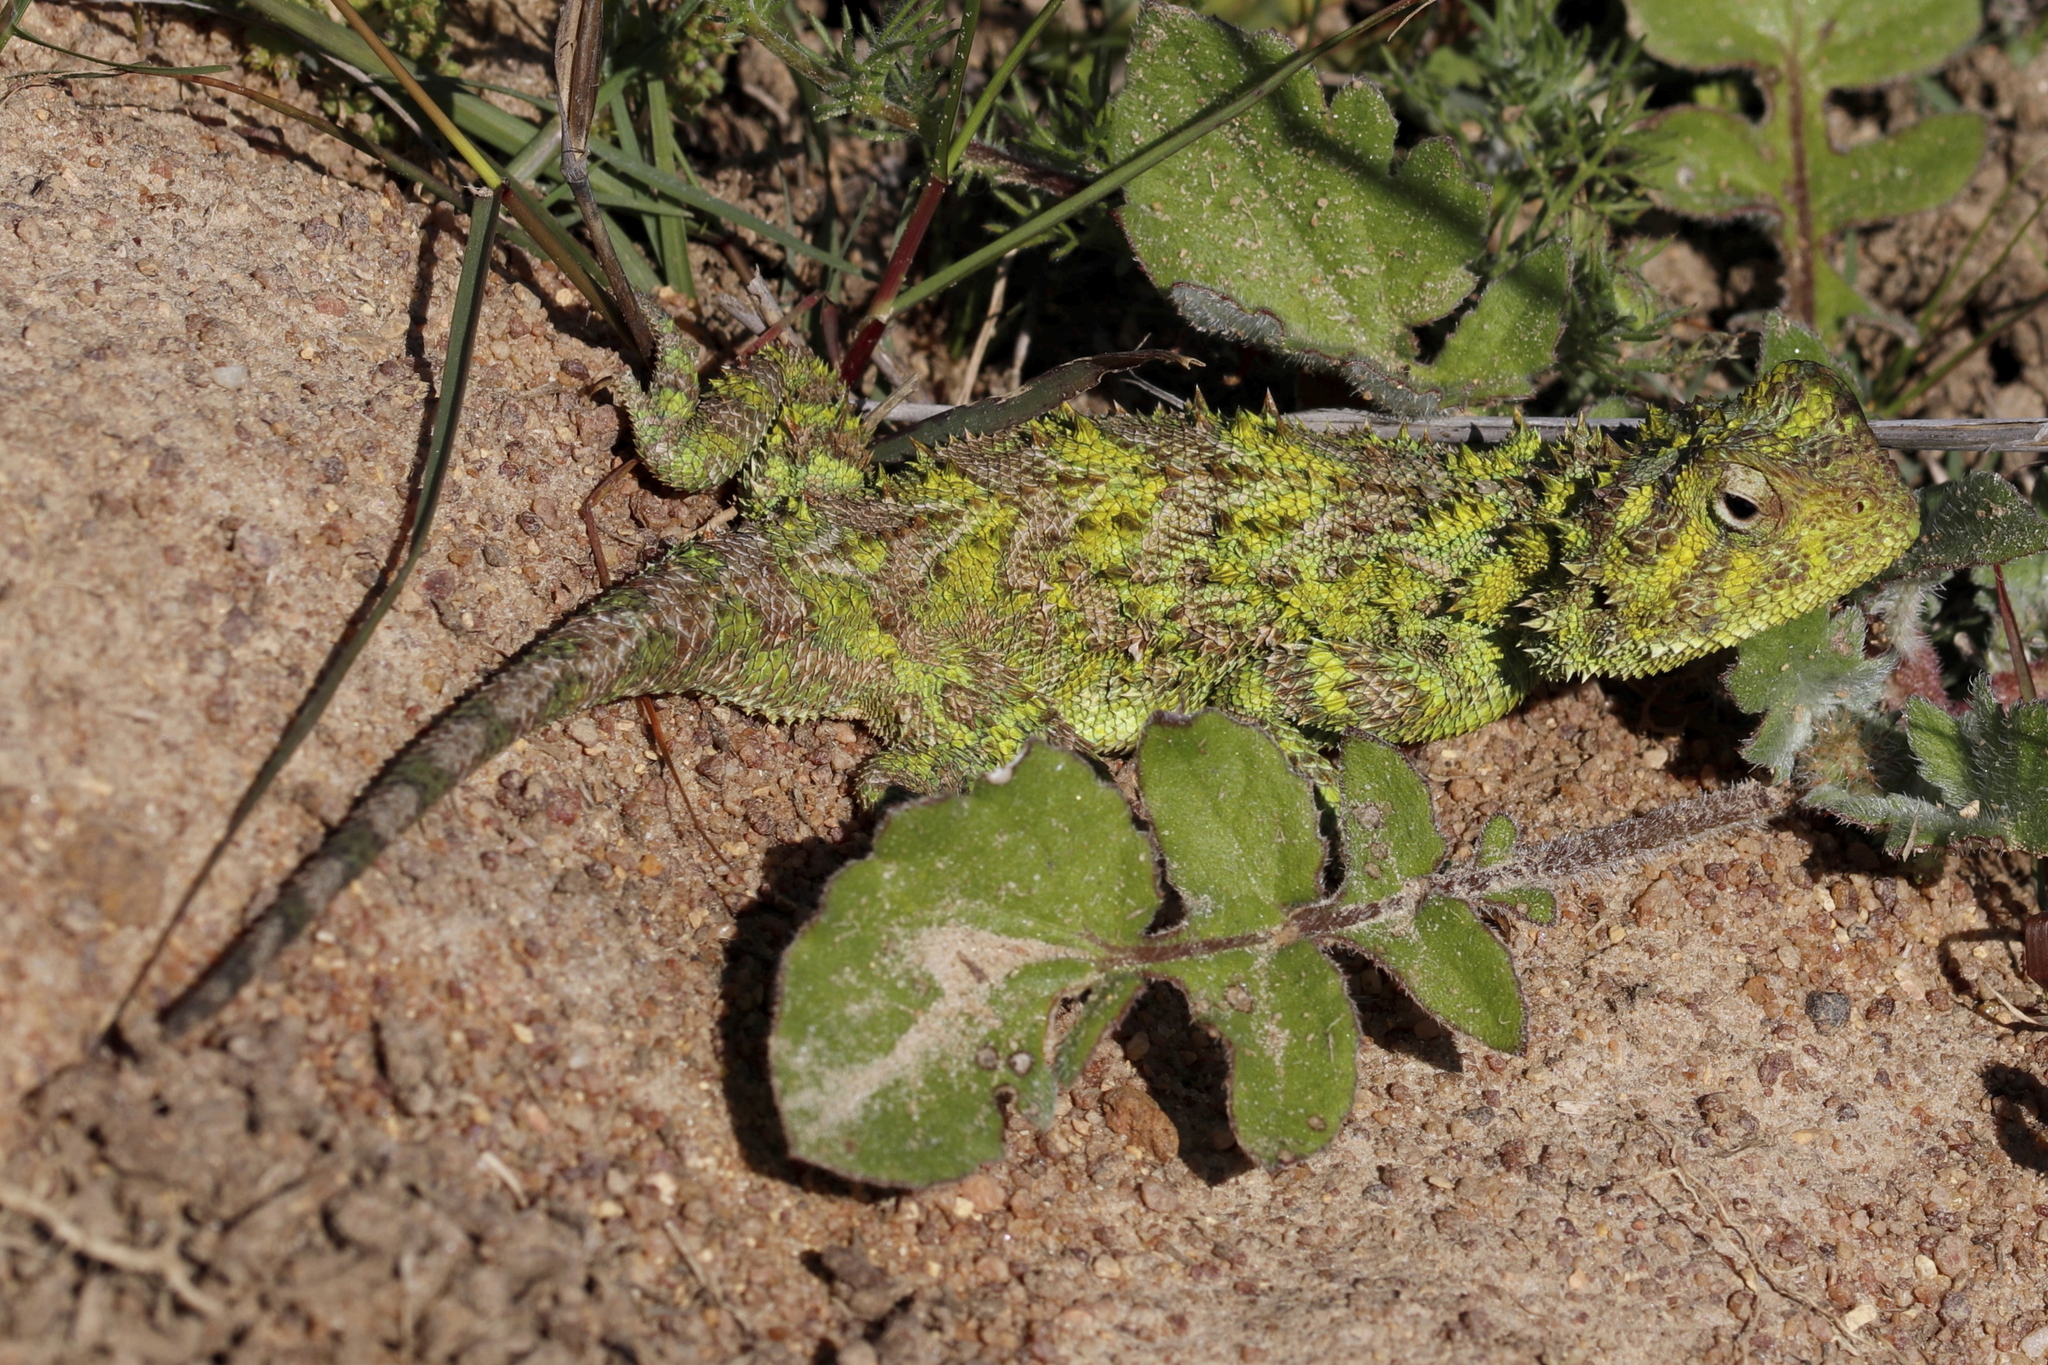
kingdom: Animalia
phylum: Chordata
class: Squamata
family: Agamidae
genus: Agama
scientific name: Agama hispida
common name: Common spiny agama
